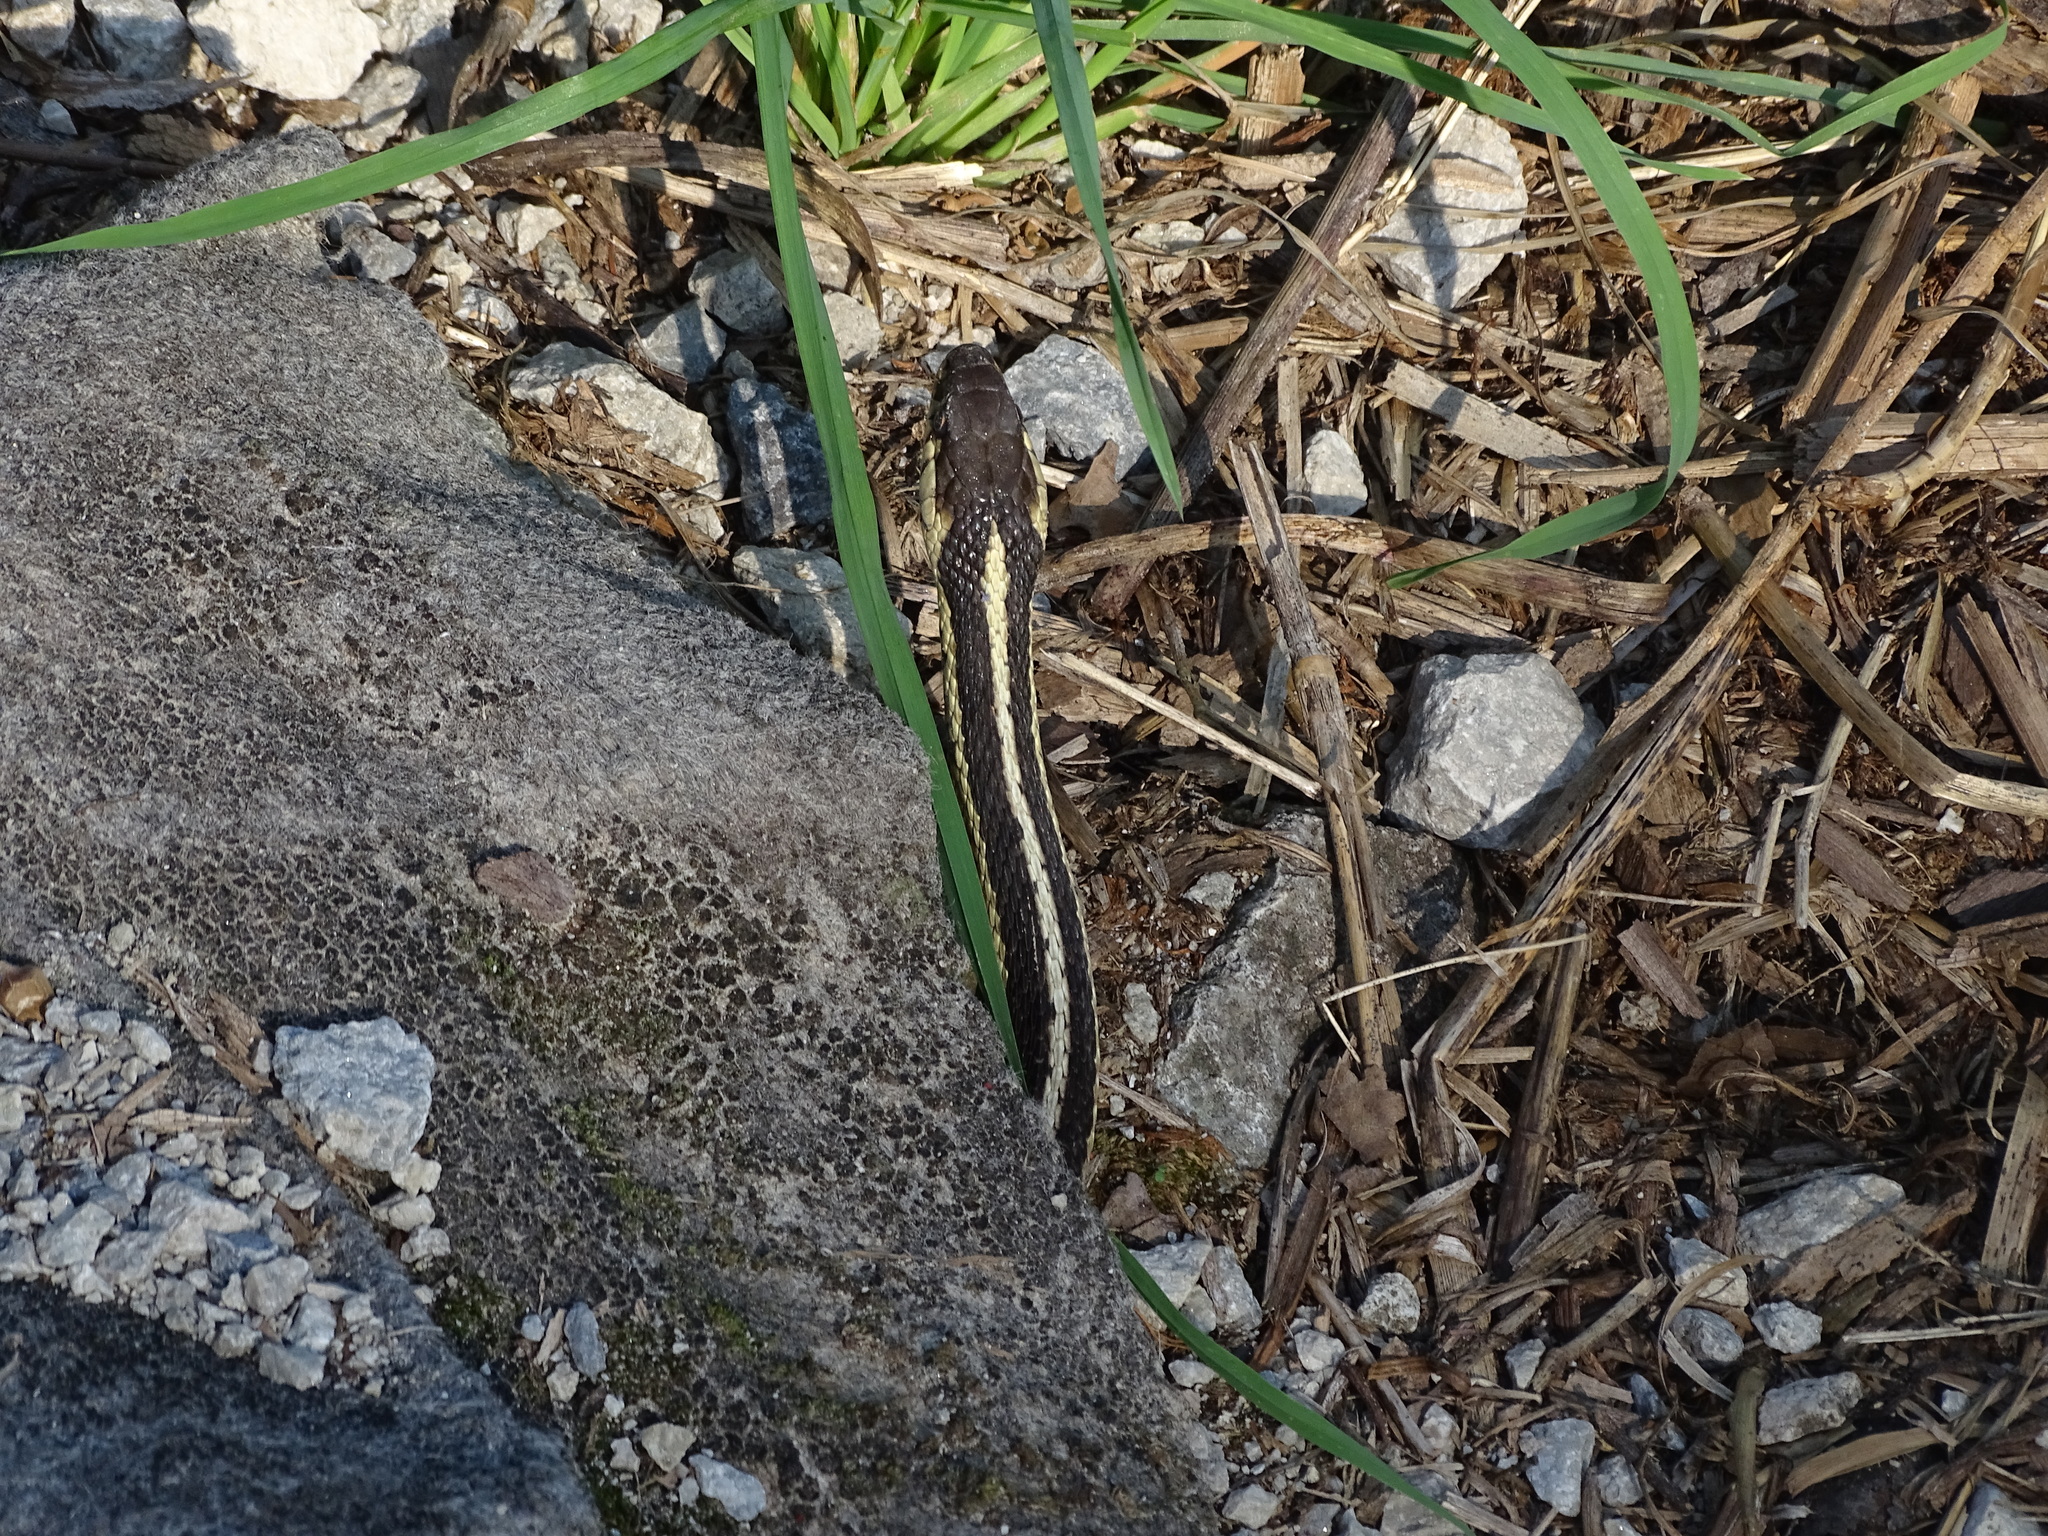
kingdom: Animalia
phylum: Chordata
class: Squamata
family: Colubridae
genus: Thamnophis
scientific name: Thamnophis sirtalis
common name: Common garter snake
